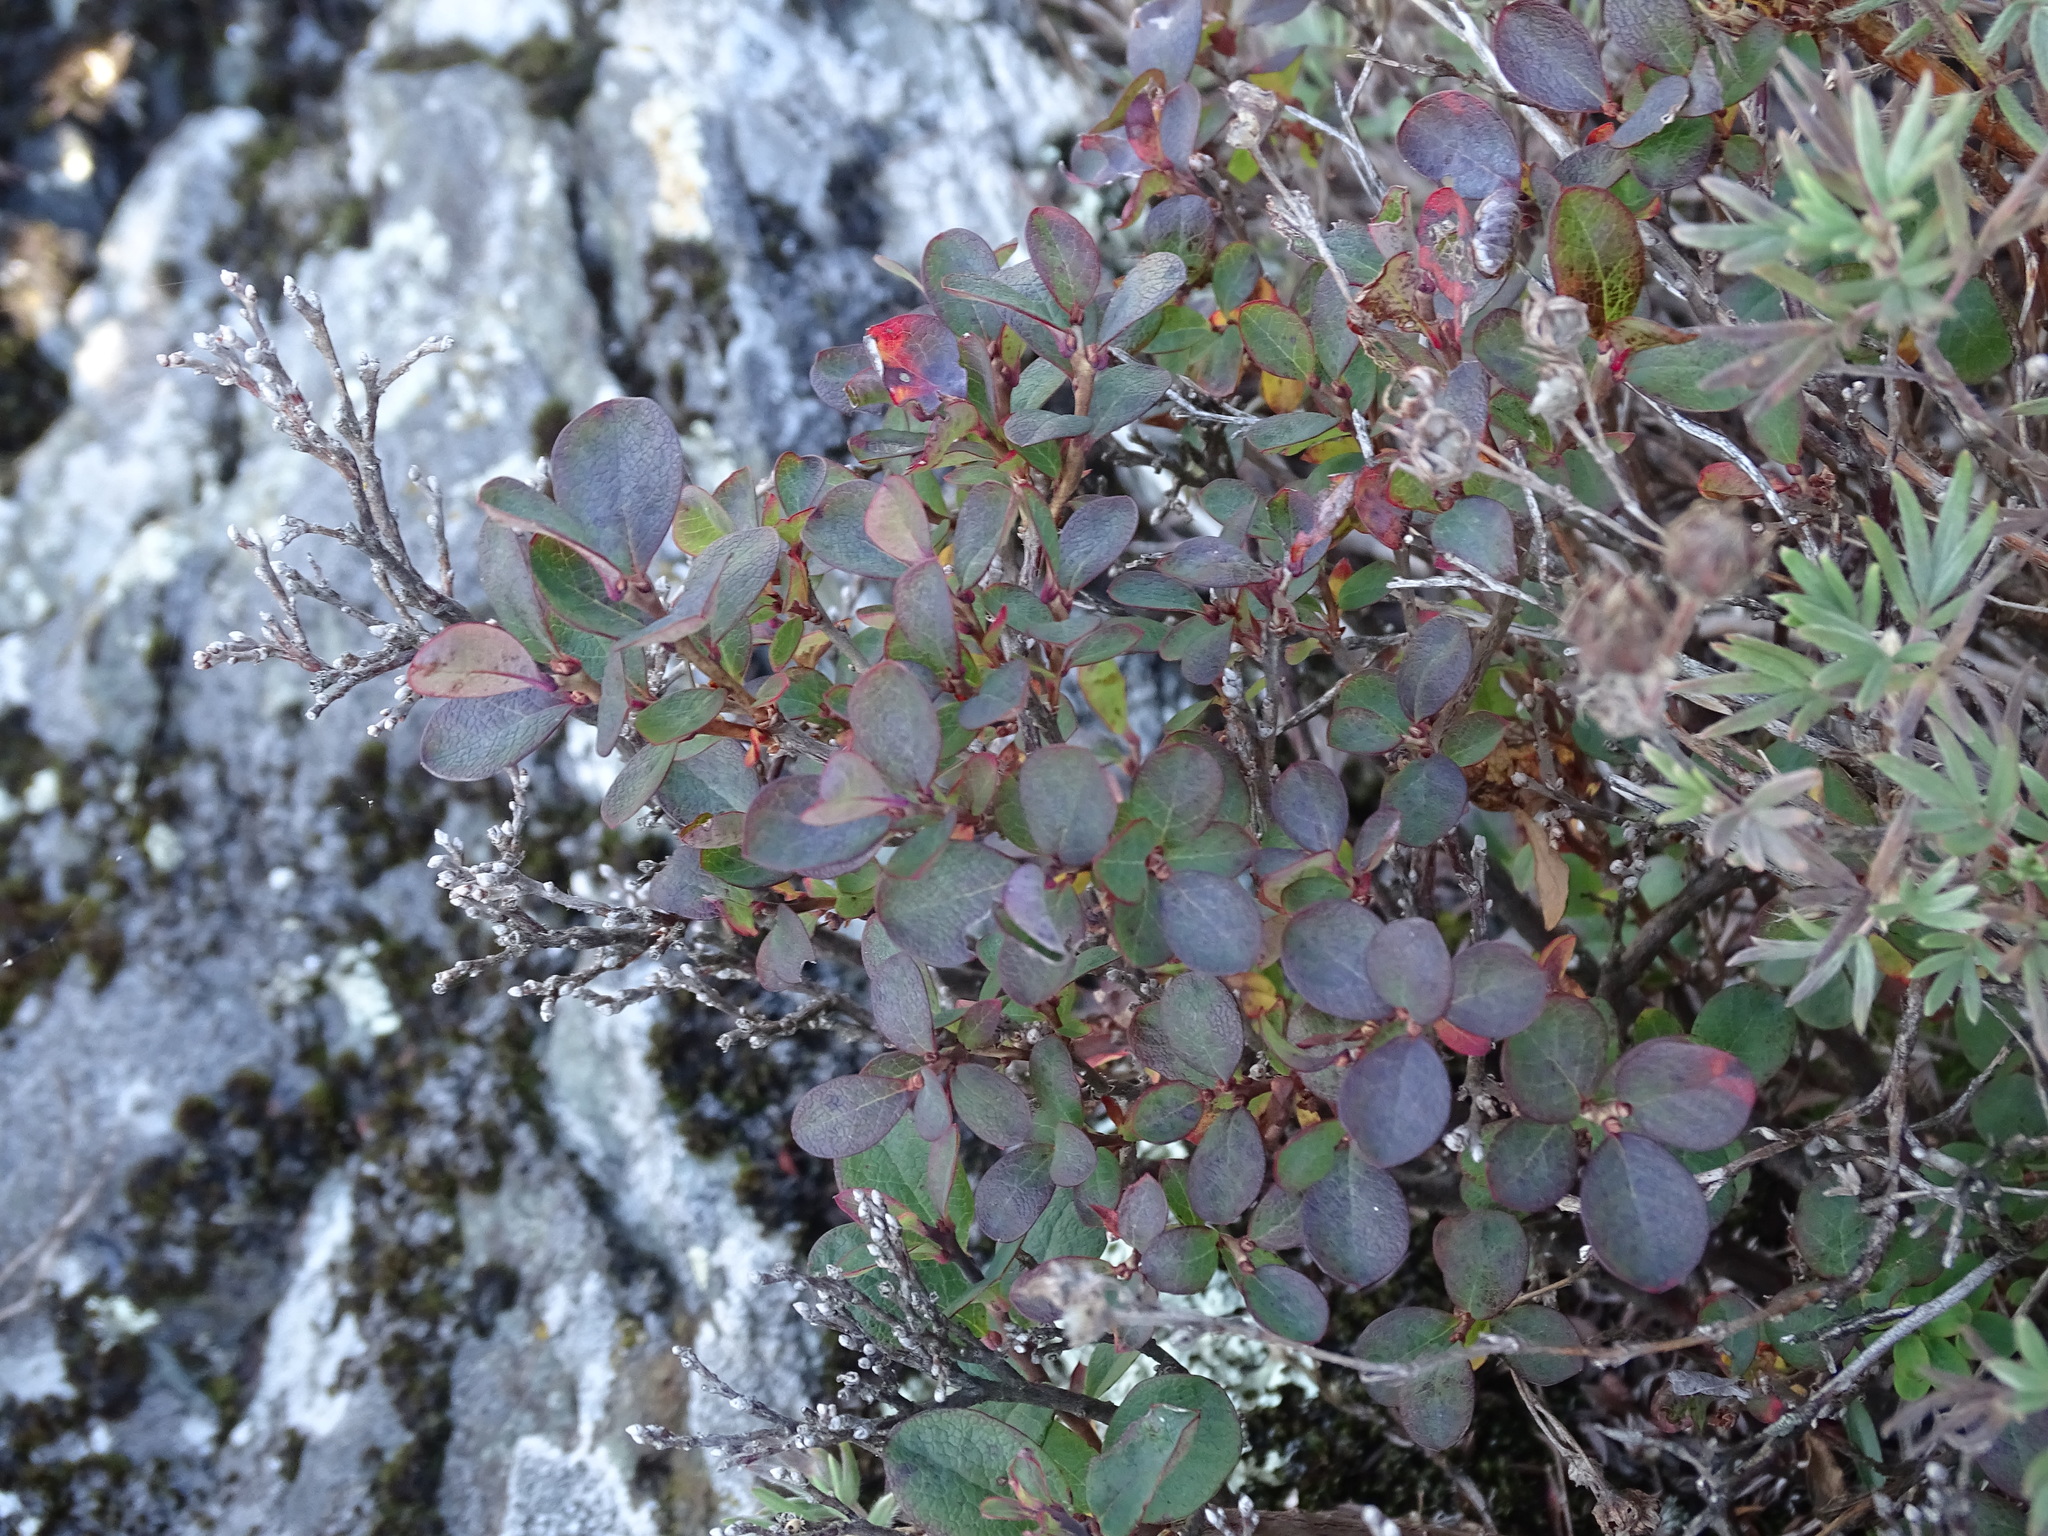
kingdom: Plantae
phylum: Tracheophyta
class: Magnoliopsida
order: Ericales
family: Ericaceae
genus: Vaccinium
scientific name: Vaccinium uliginosum
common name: Bog bilberry
